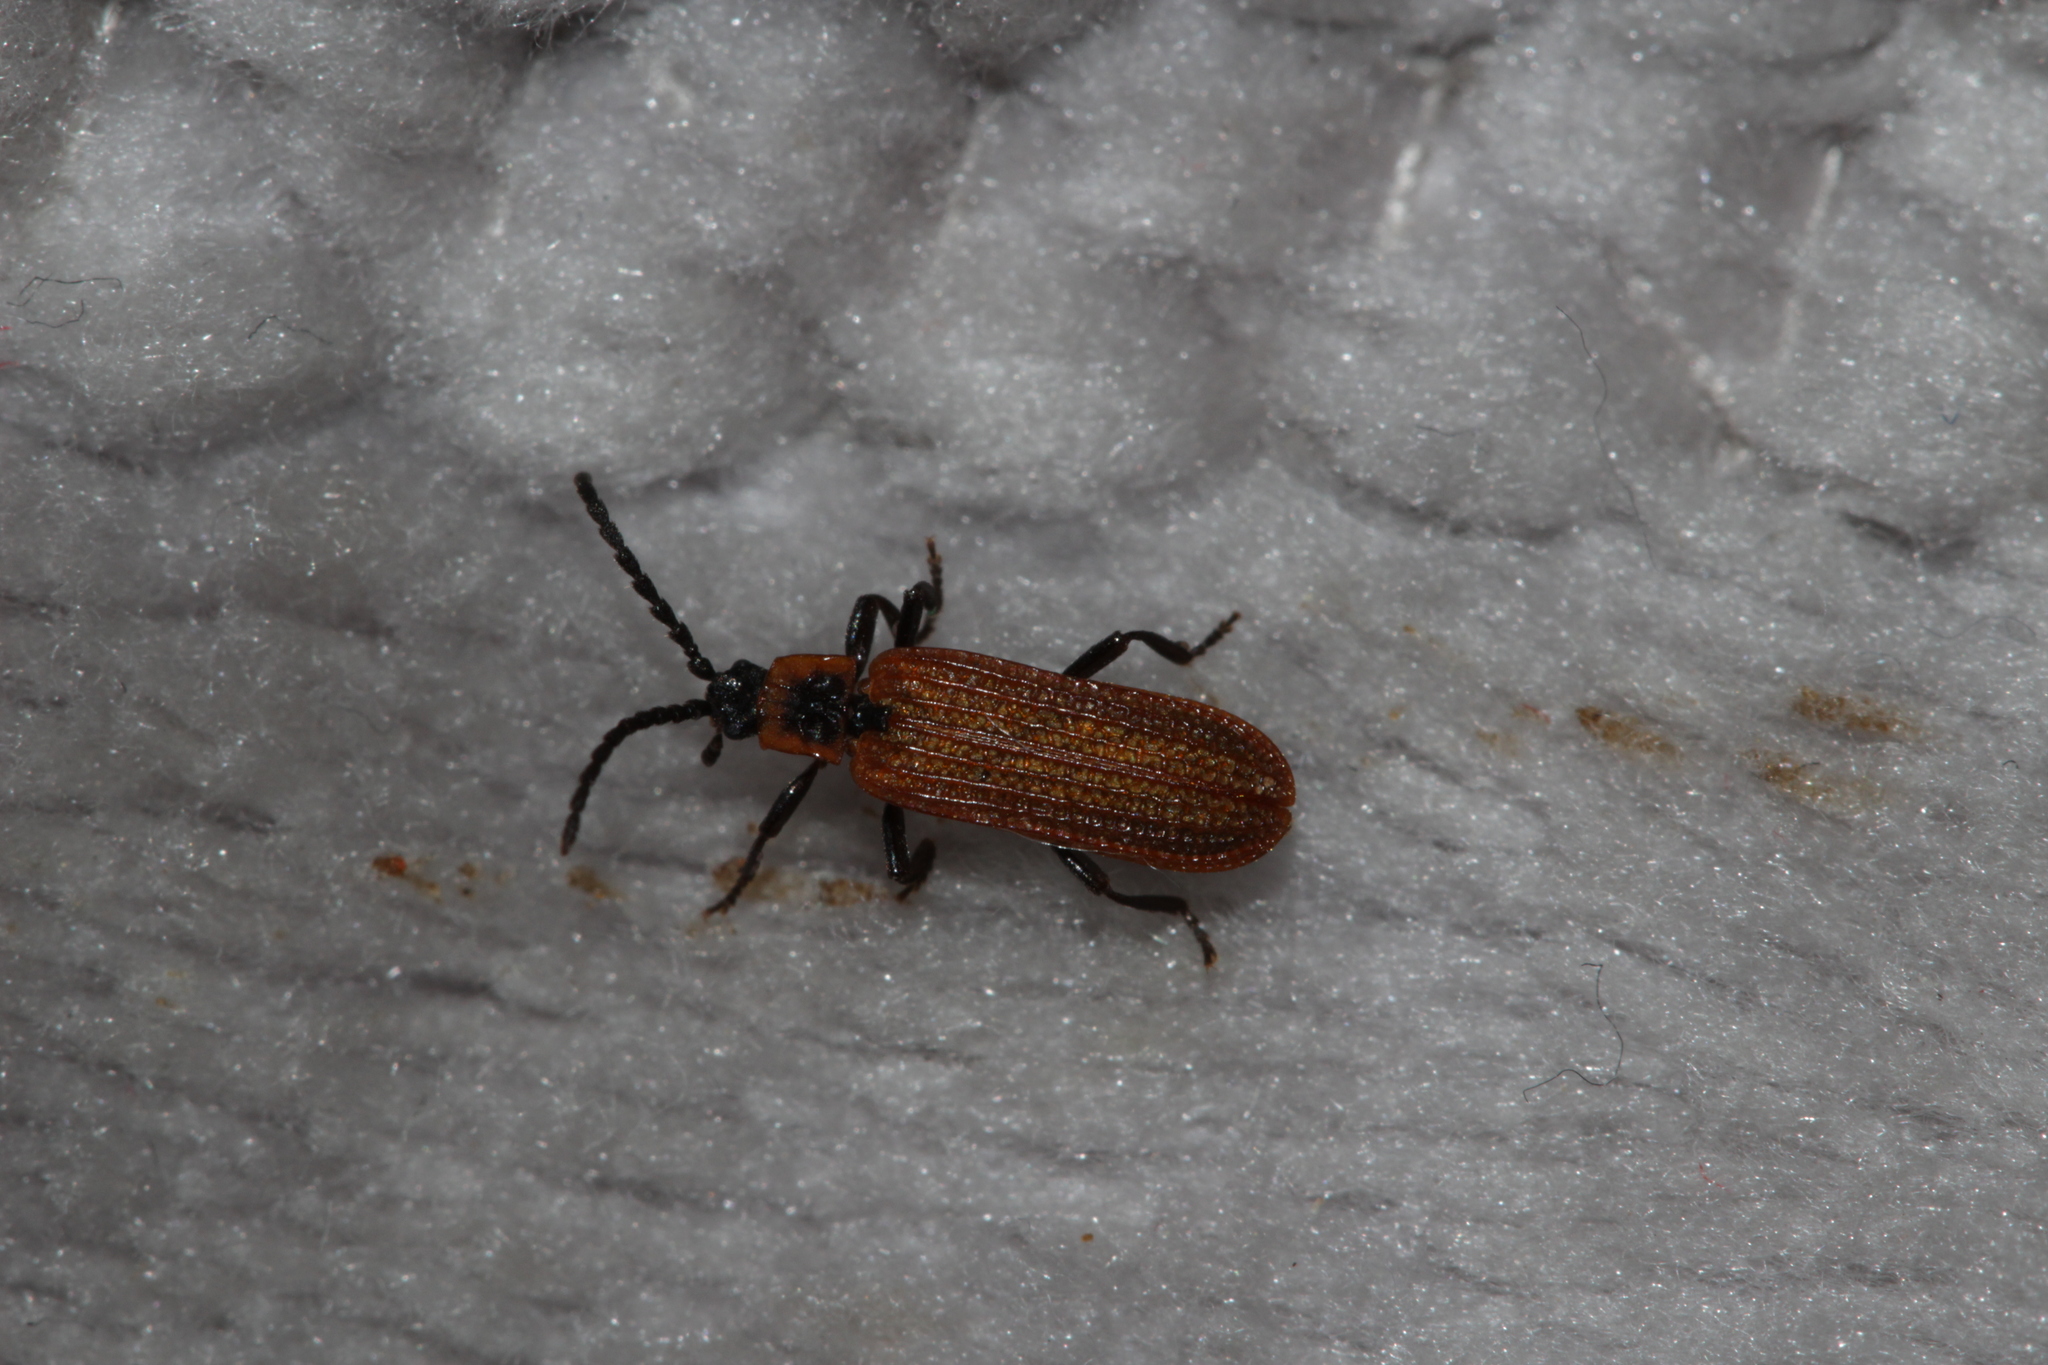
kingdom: Animalia
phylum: Arthropoda
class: Insecta
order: Coleoptera
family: Lycidae
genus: Erotides
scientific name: Erotides cosnardi
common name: Cosnard's net-winged beetle
